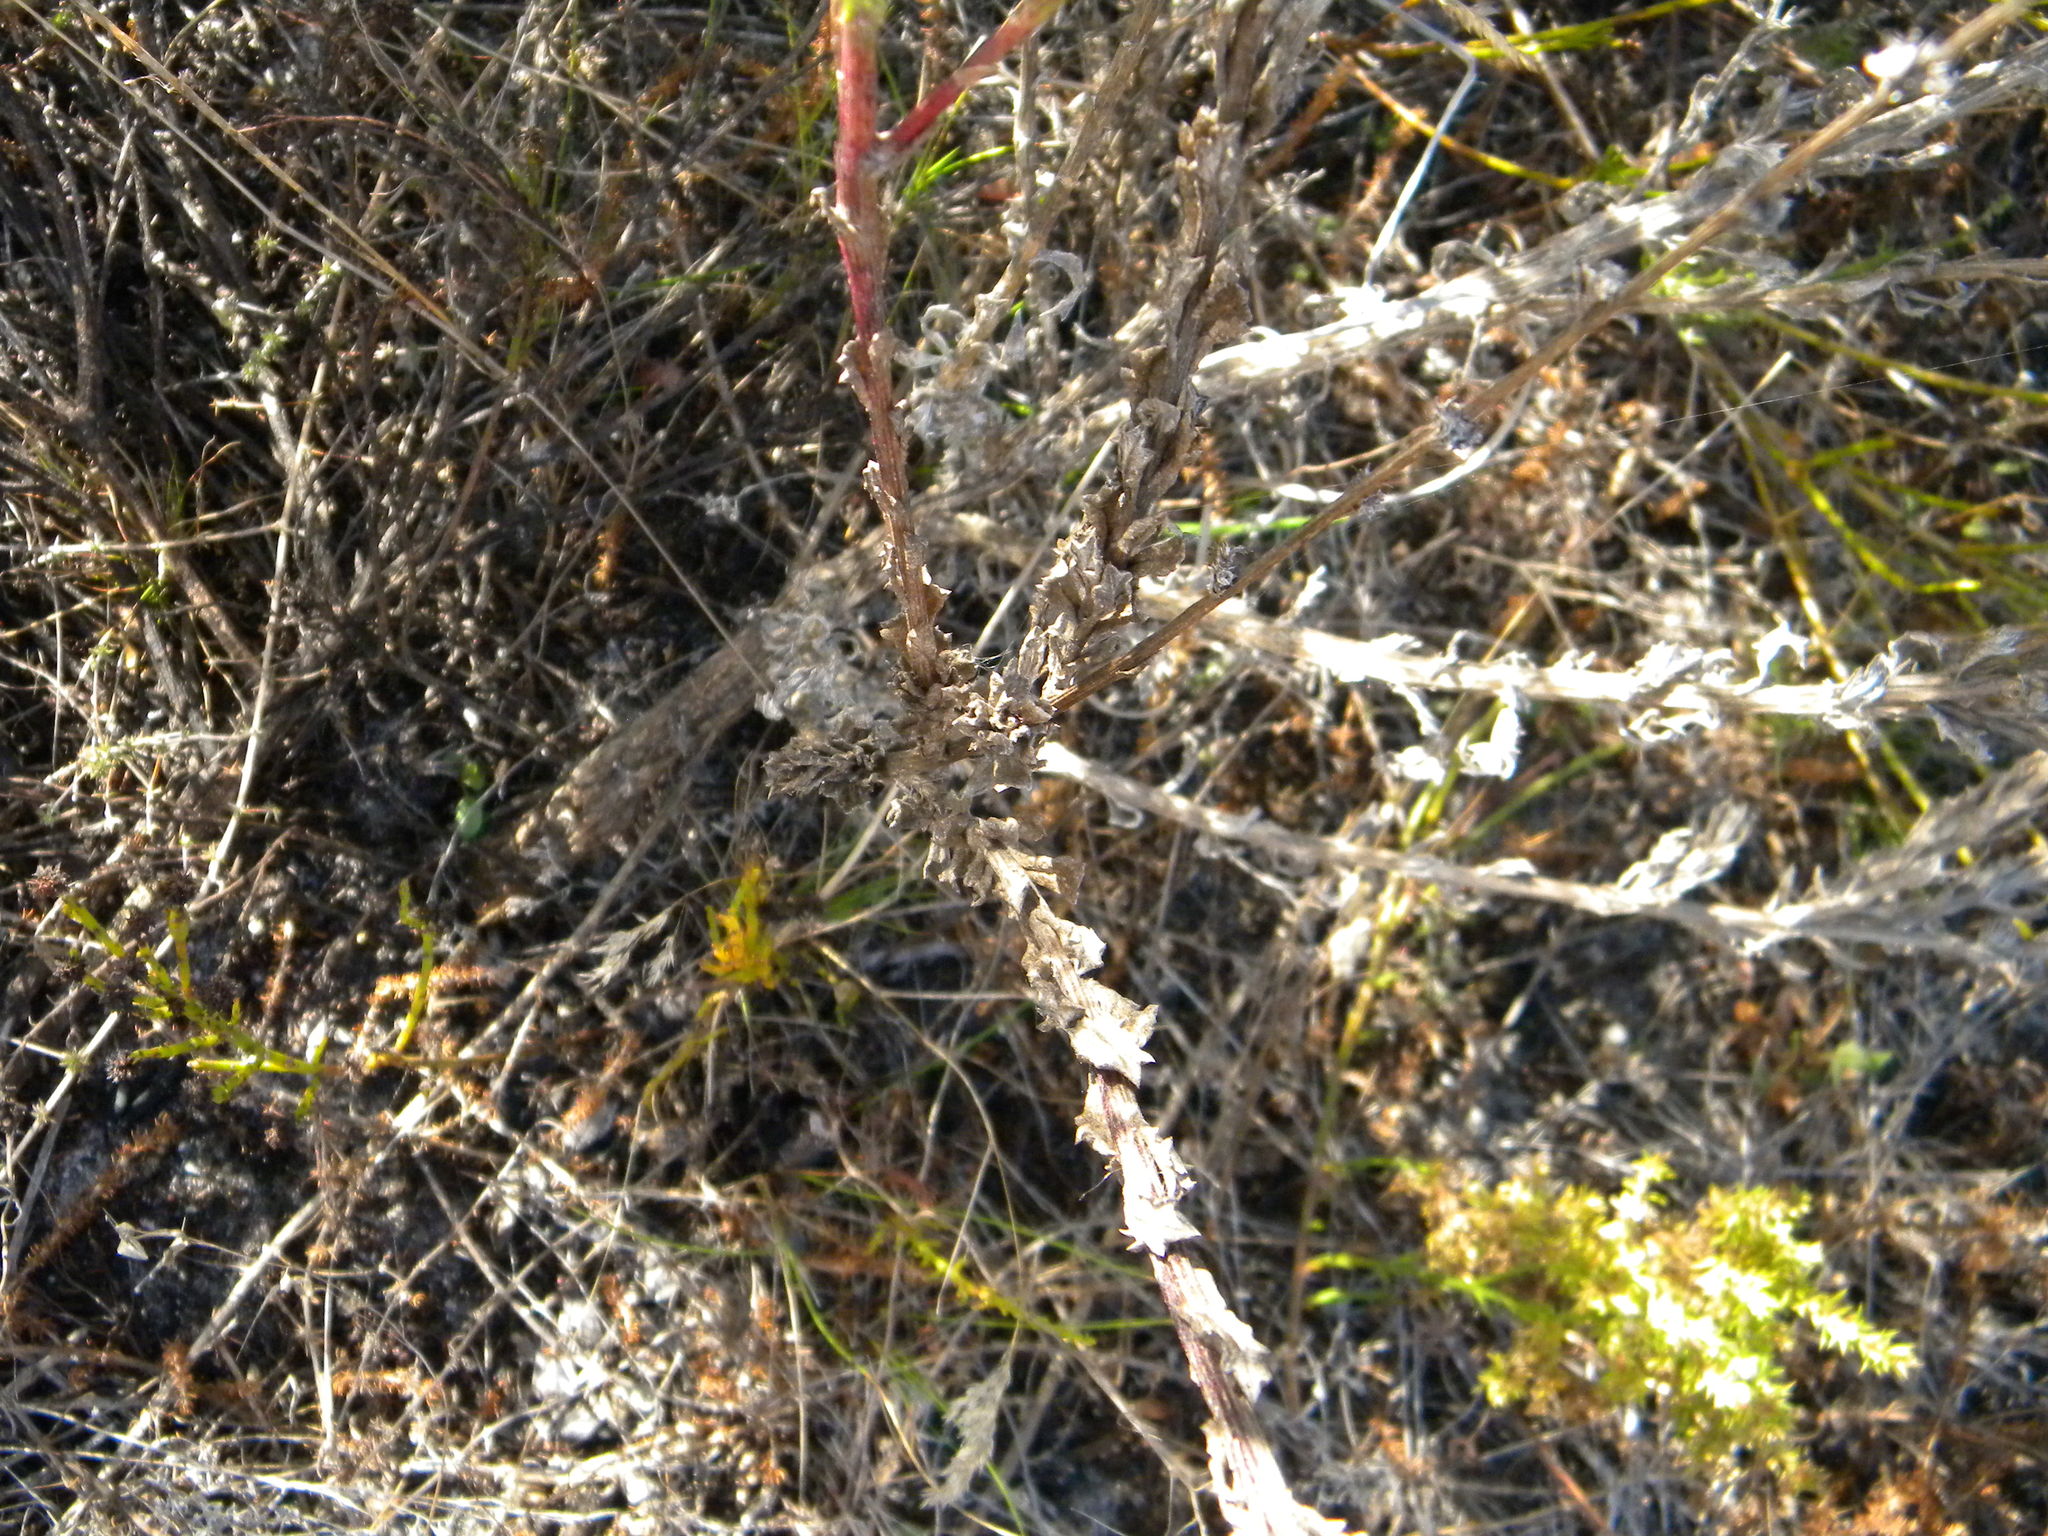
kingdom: Plantae
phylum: Tracheophyta
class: Magnoliopsida
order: Asterales
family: Asteraceae
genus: Senecio
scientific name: Senecio pubigerus
